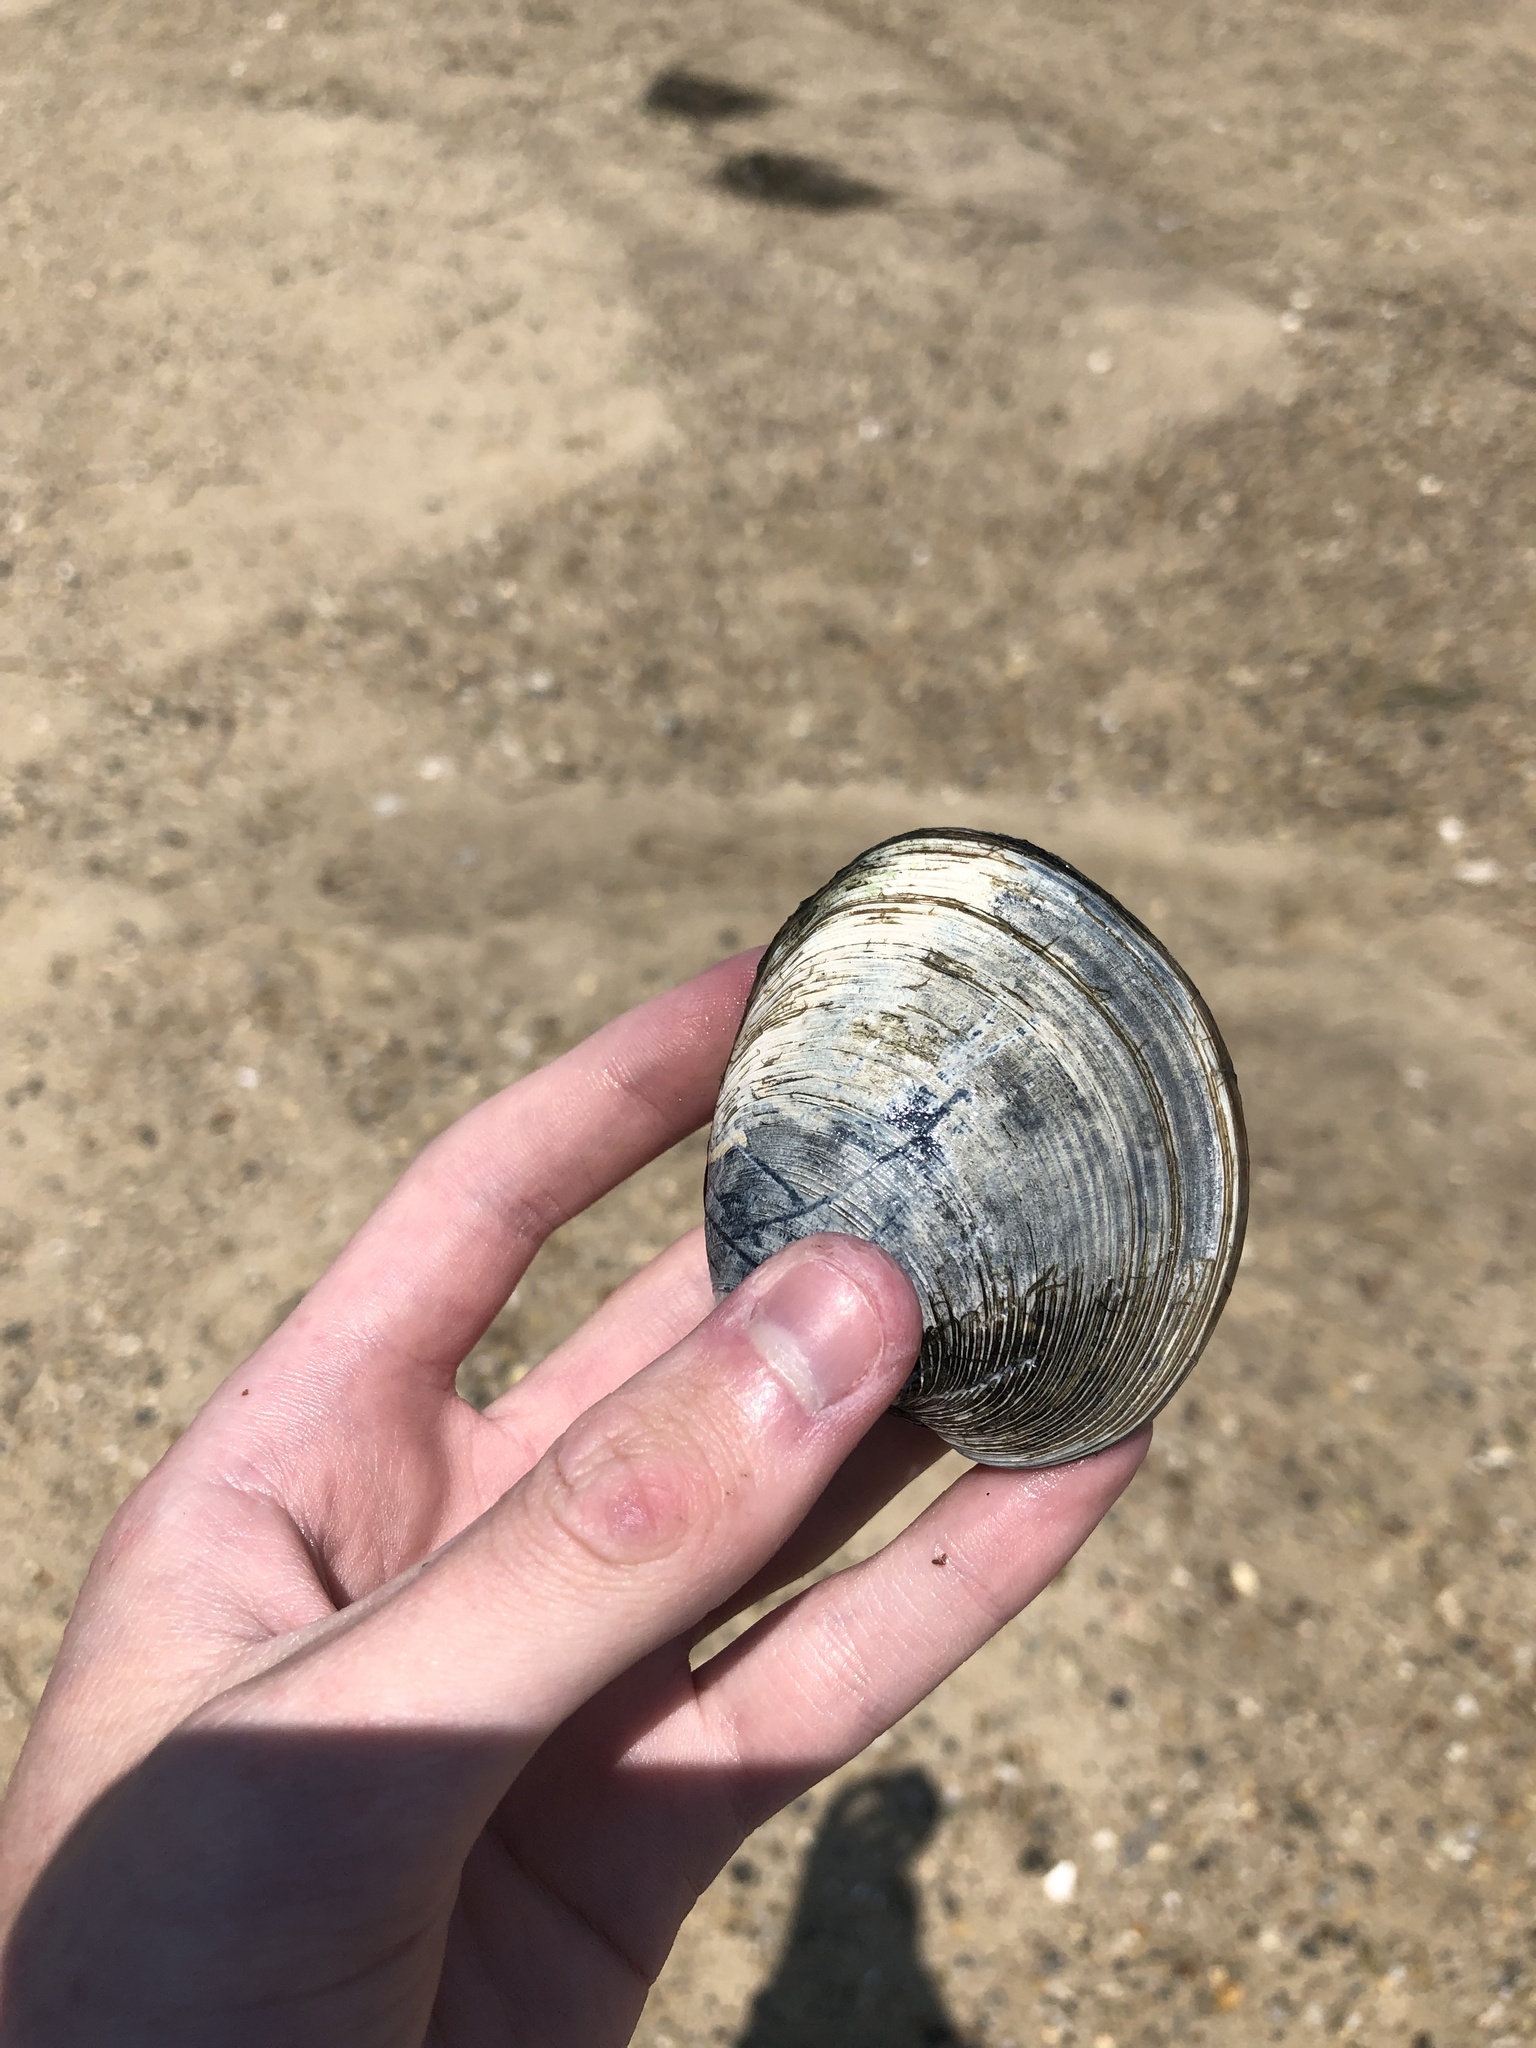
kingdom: Animalia
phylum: Mollusca
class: Bivalvia
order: Venerida
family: Veneridae
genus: Mercenaria
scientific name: Mercenaria mercenaria
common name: American hard-shelled clam
